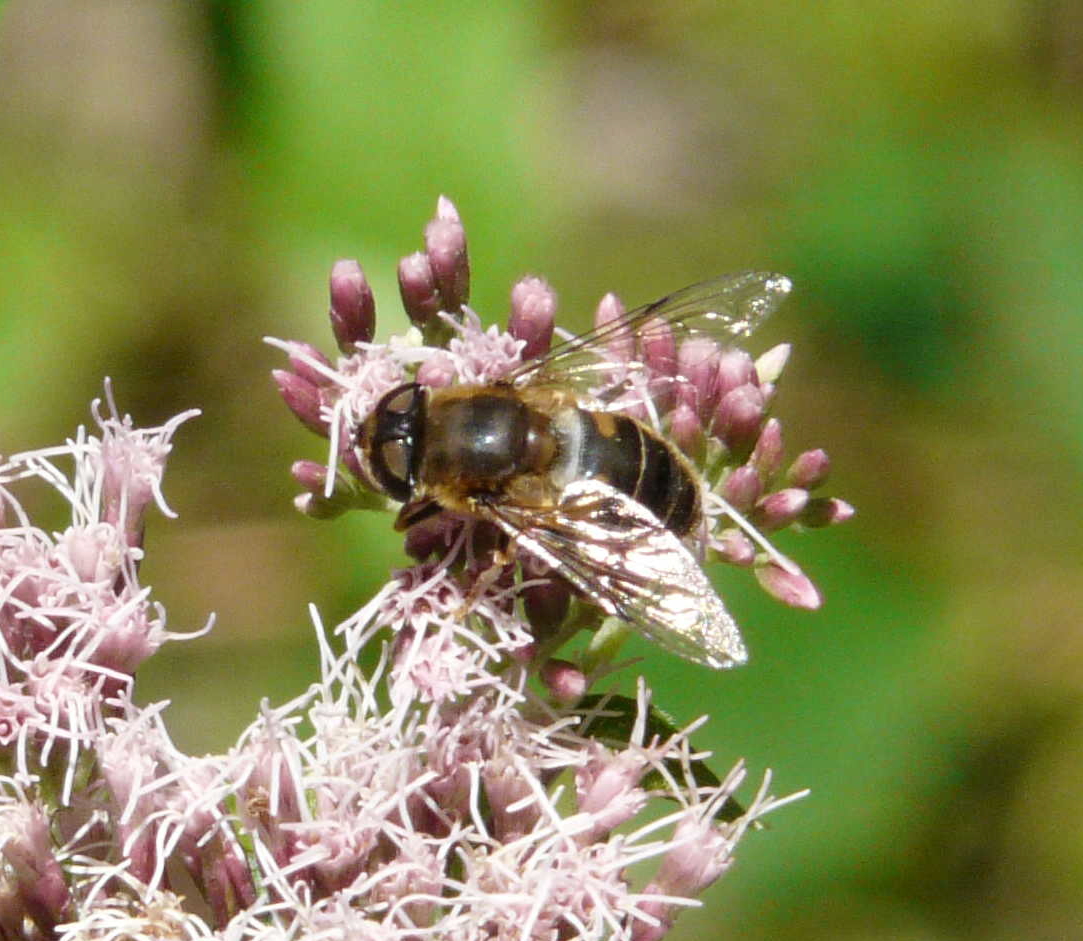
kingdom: Animalia
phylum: Arthropoda
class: Insecta
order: Diptera
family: Syrphidae
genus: Eristalis
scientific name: Eristalis
